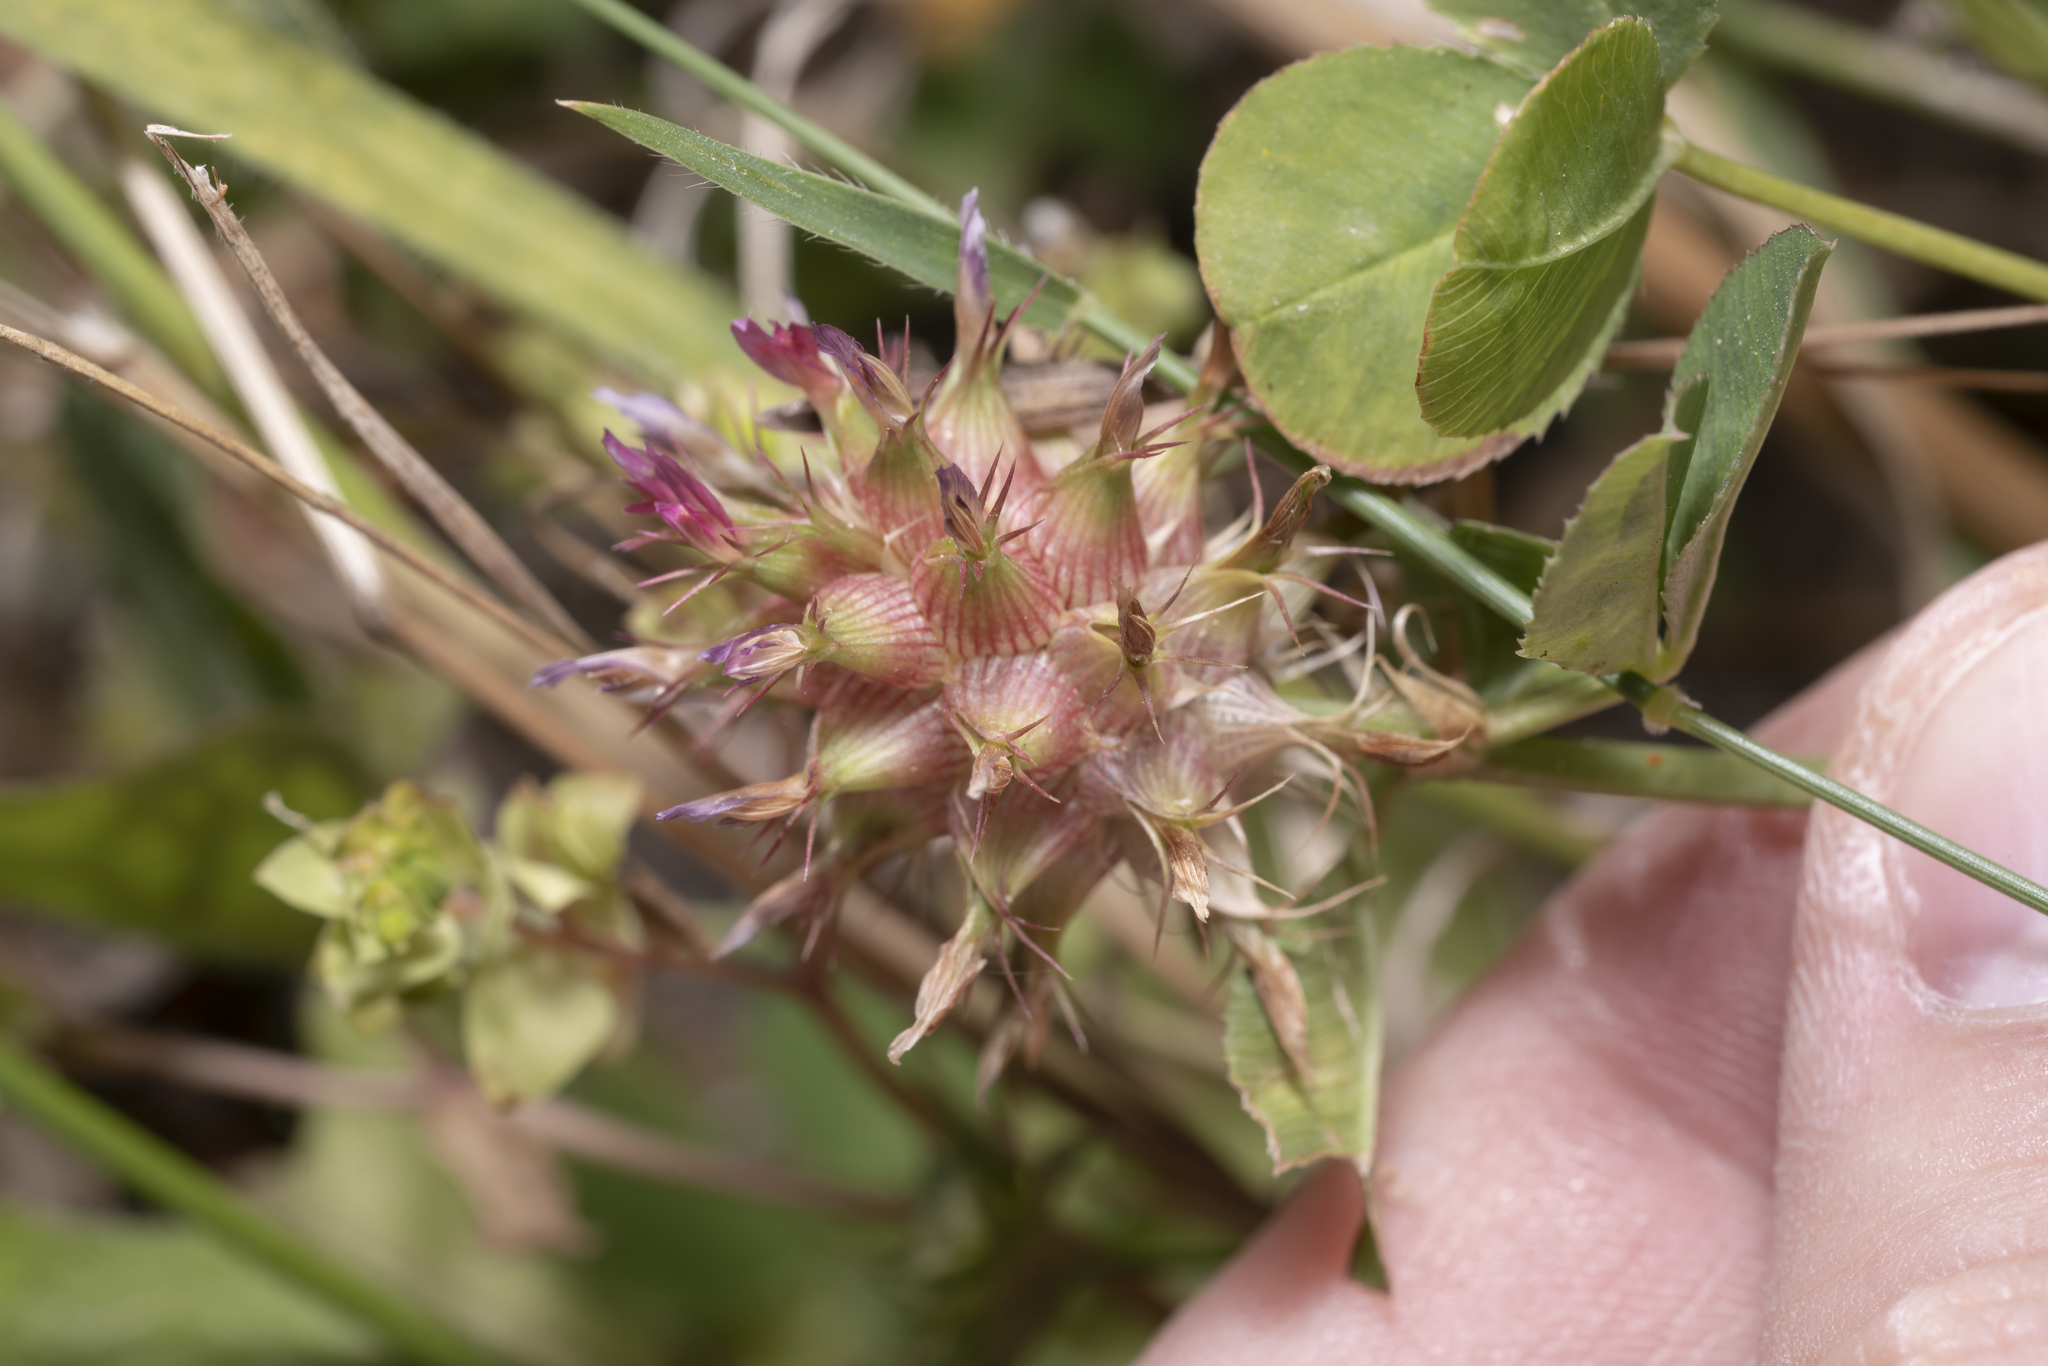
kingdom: Plantae
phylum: Tracheophyta
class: Magnoliopsida
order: Fabales
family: Fabaceae
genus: Trifolium
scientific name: Trifolium spumosum
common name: Mediterranean clover
